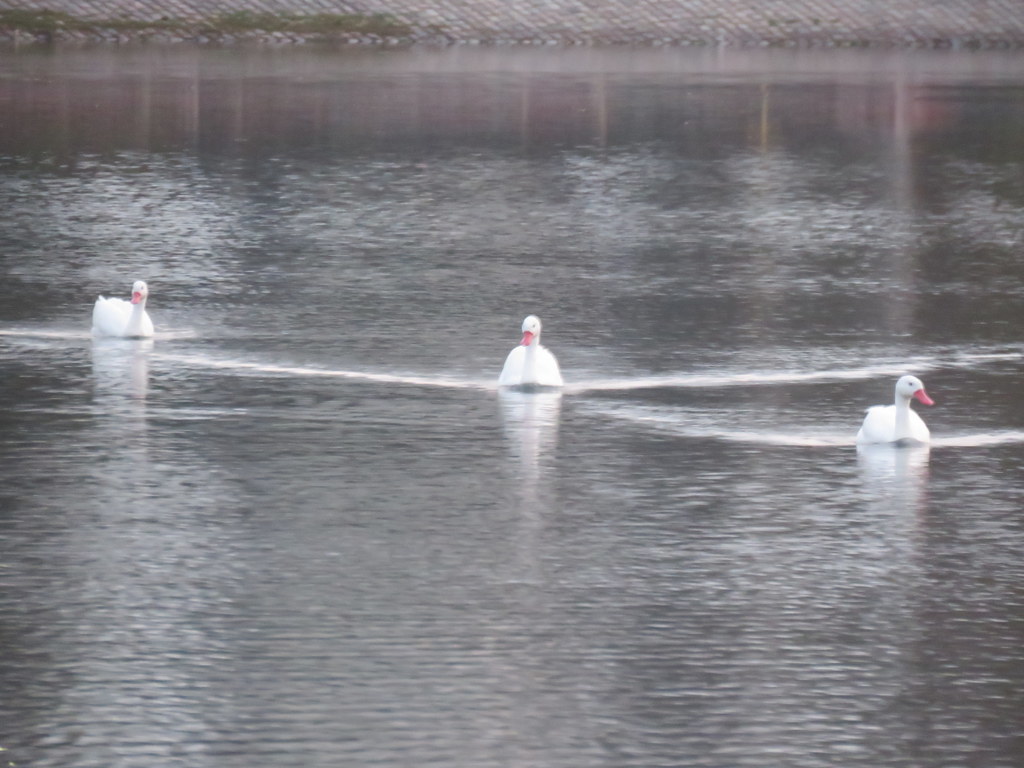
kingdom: Animalia
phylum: Chordata
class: Aves
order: Anseriformes
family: Anatidae
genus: Coscoroba
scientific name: Coscoroba coscoroba
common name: Coscoroba swan
